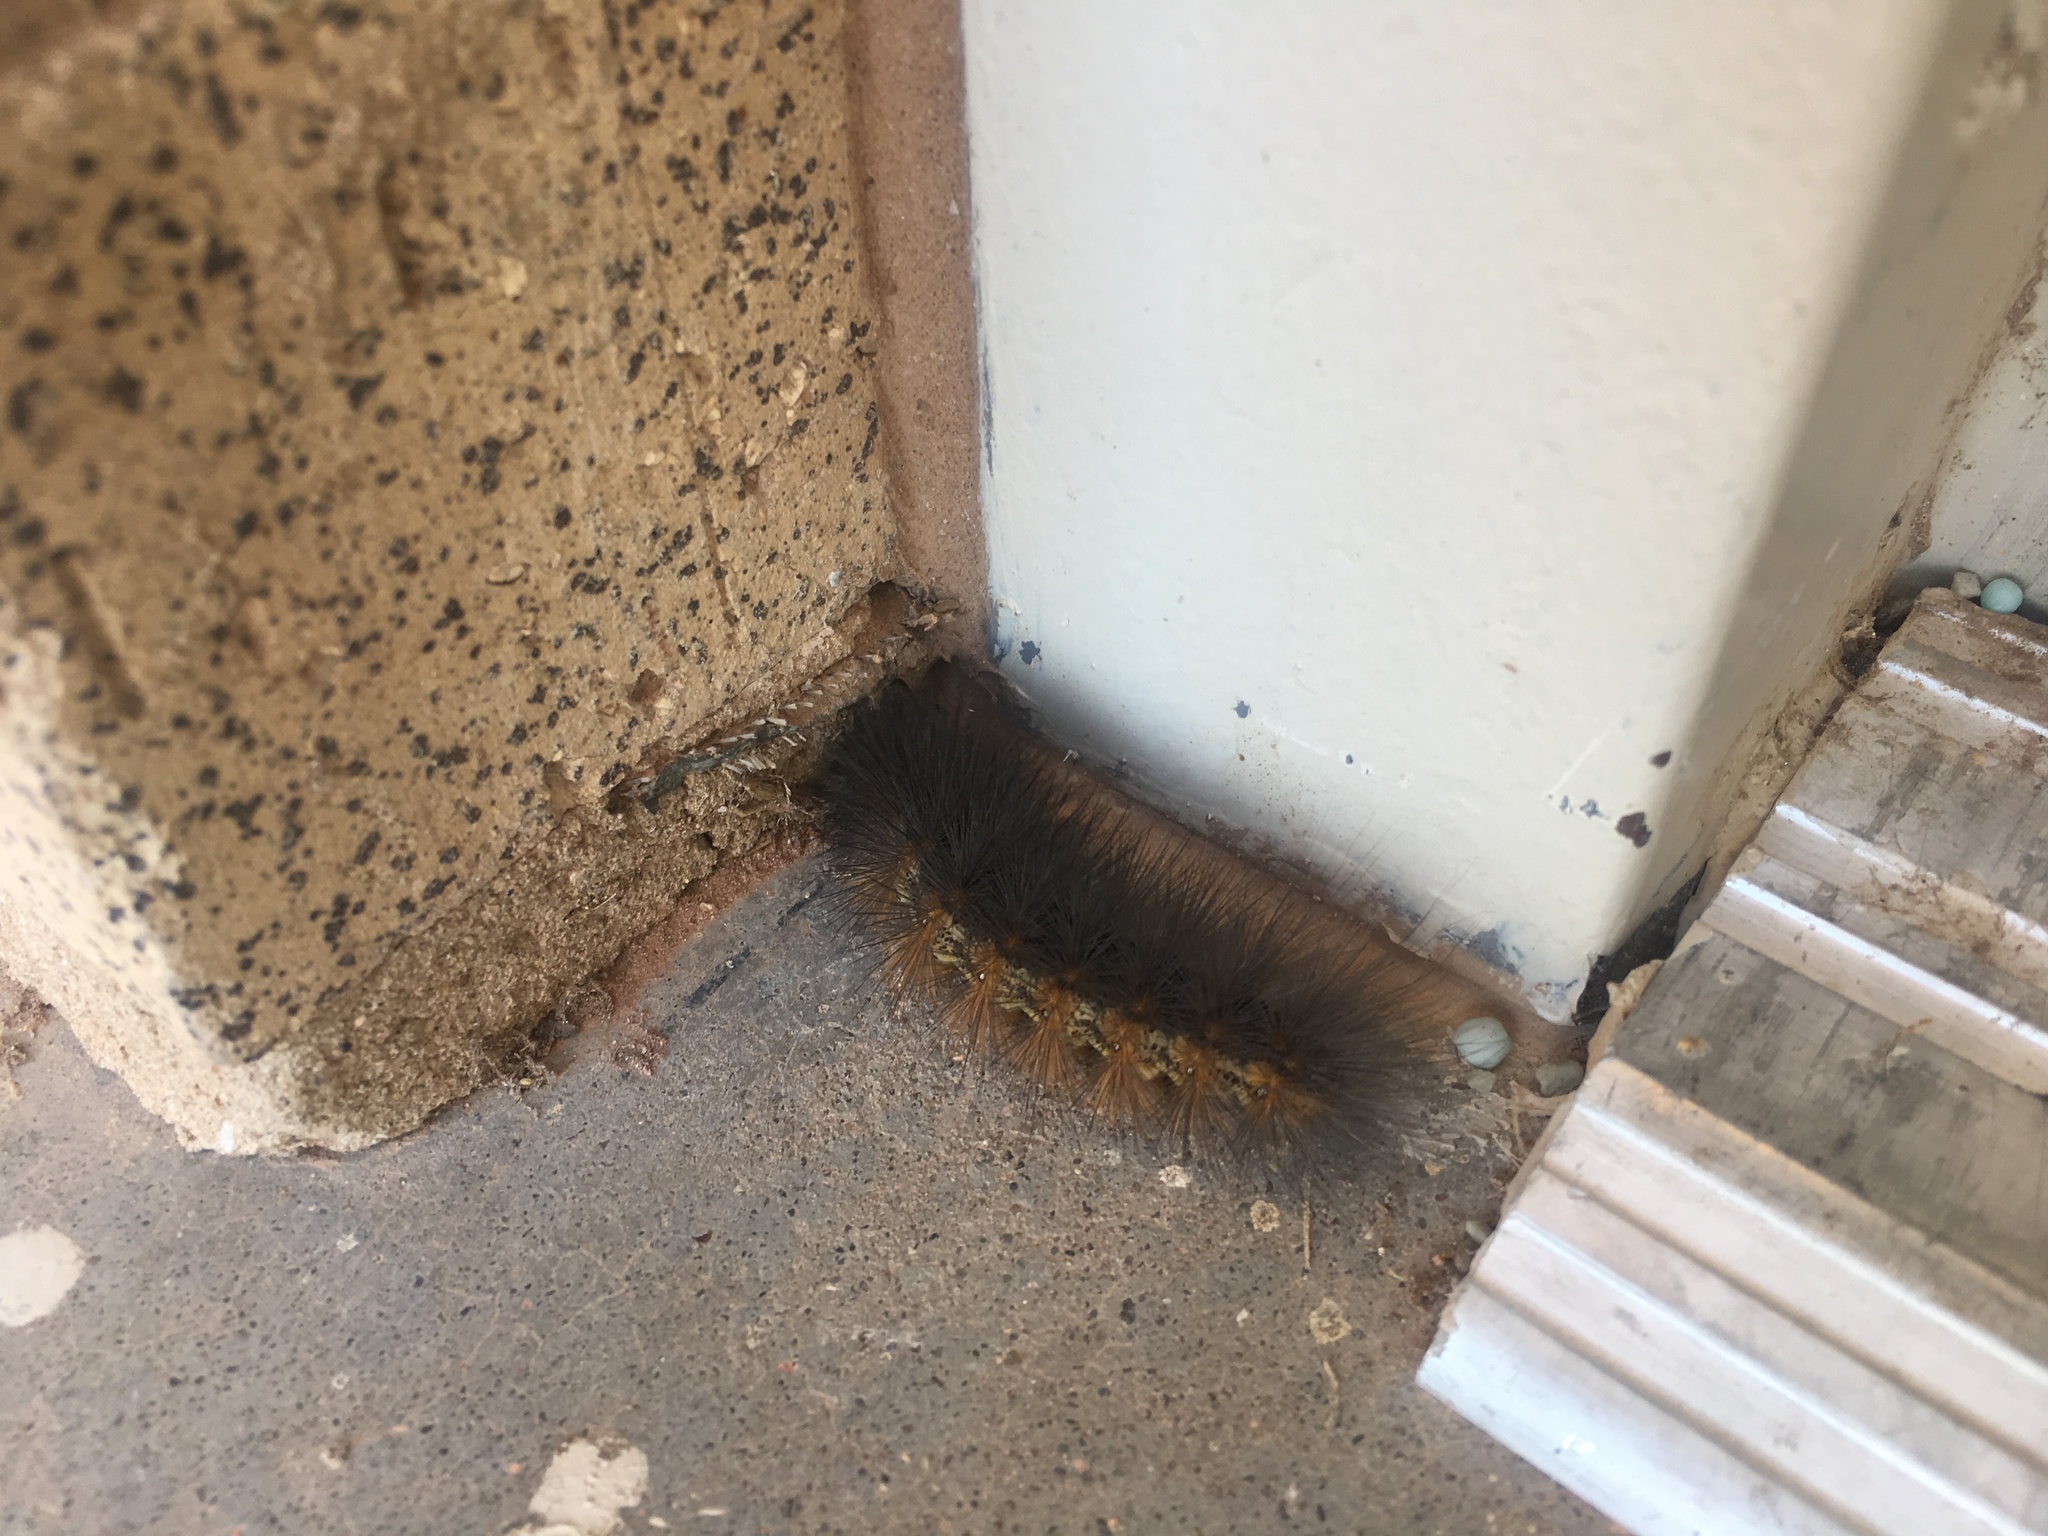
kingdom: Animalia
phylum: Arthropoda
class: Insecta
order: Lepidoptera
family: Erebidae
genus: Estigmene
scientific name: Estigmene acrea
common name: Salt marsh moth
